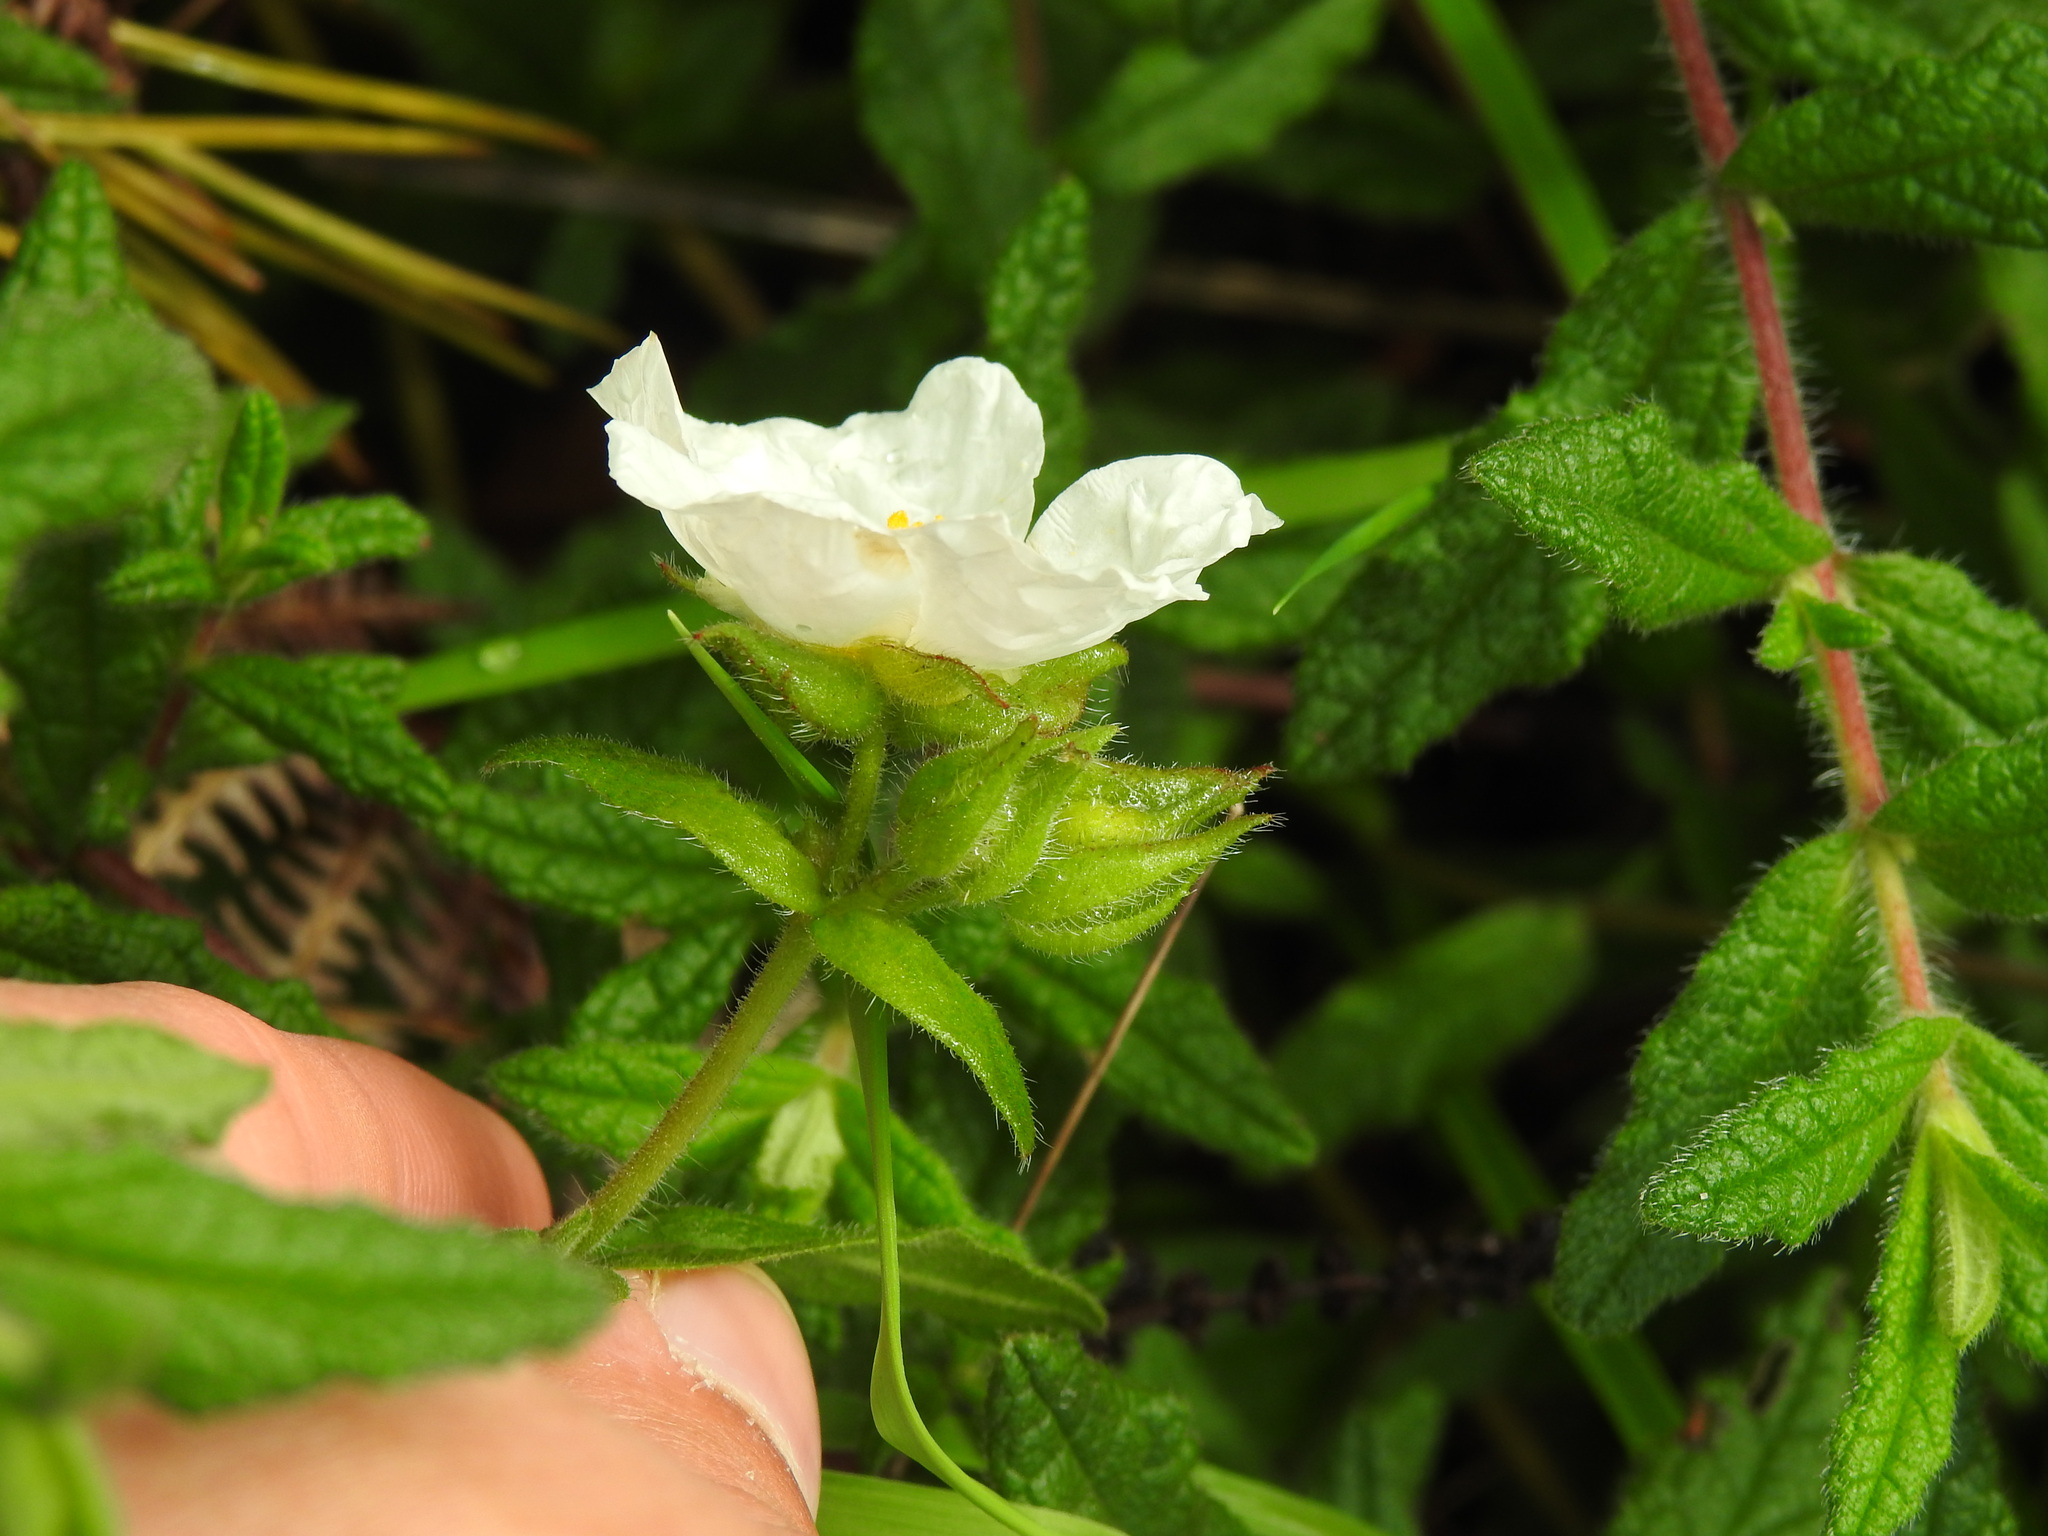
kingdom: Plantae
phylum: Tracheophyta
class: Magnoliopsida
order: Malvales
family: Cistaceae
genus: Cistus
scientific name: Cistus inflatus
